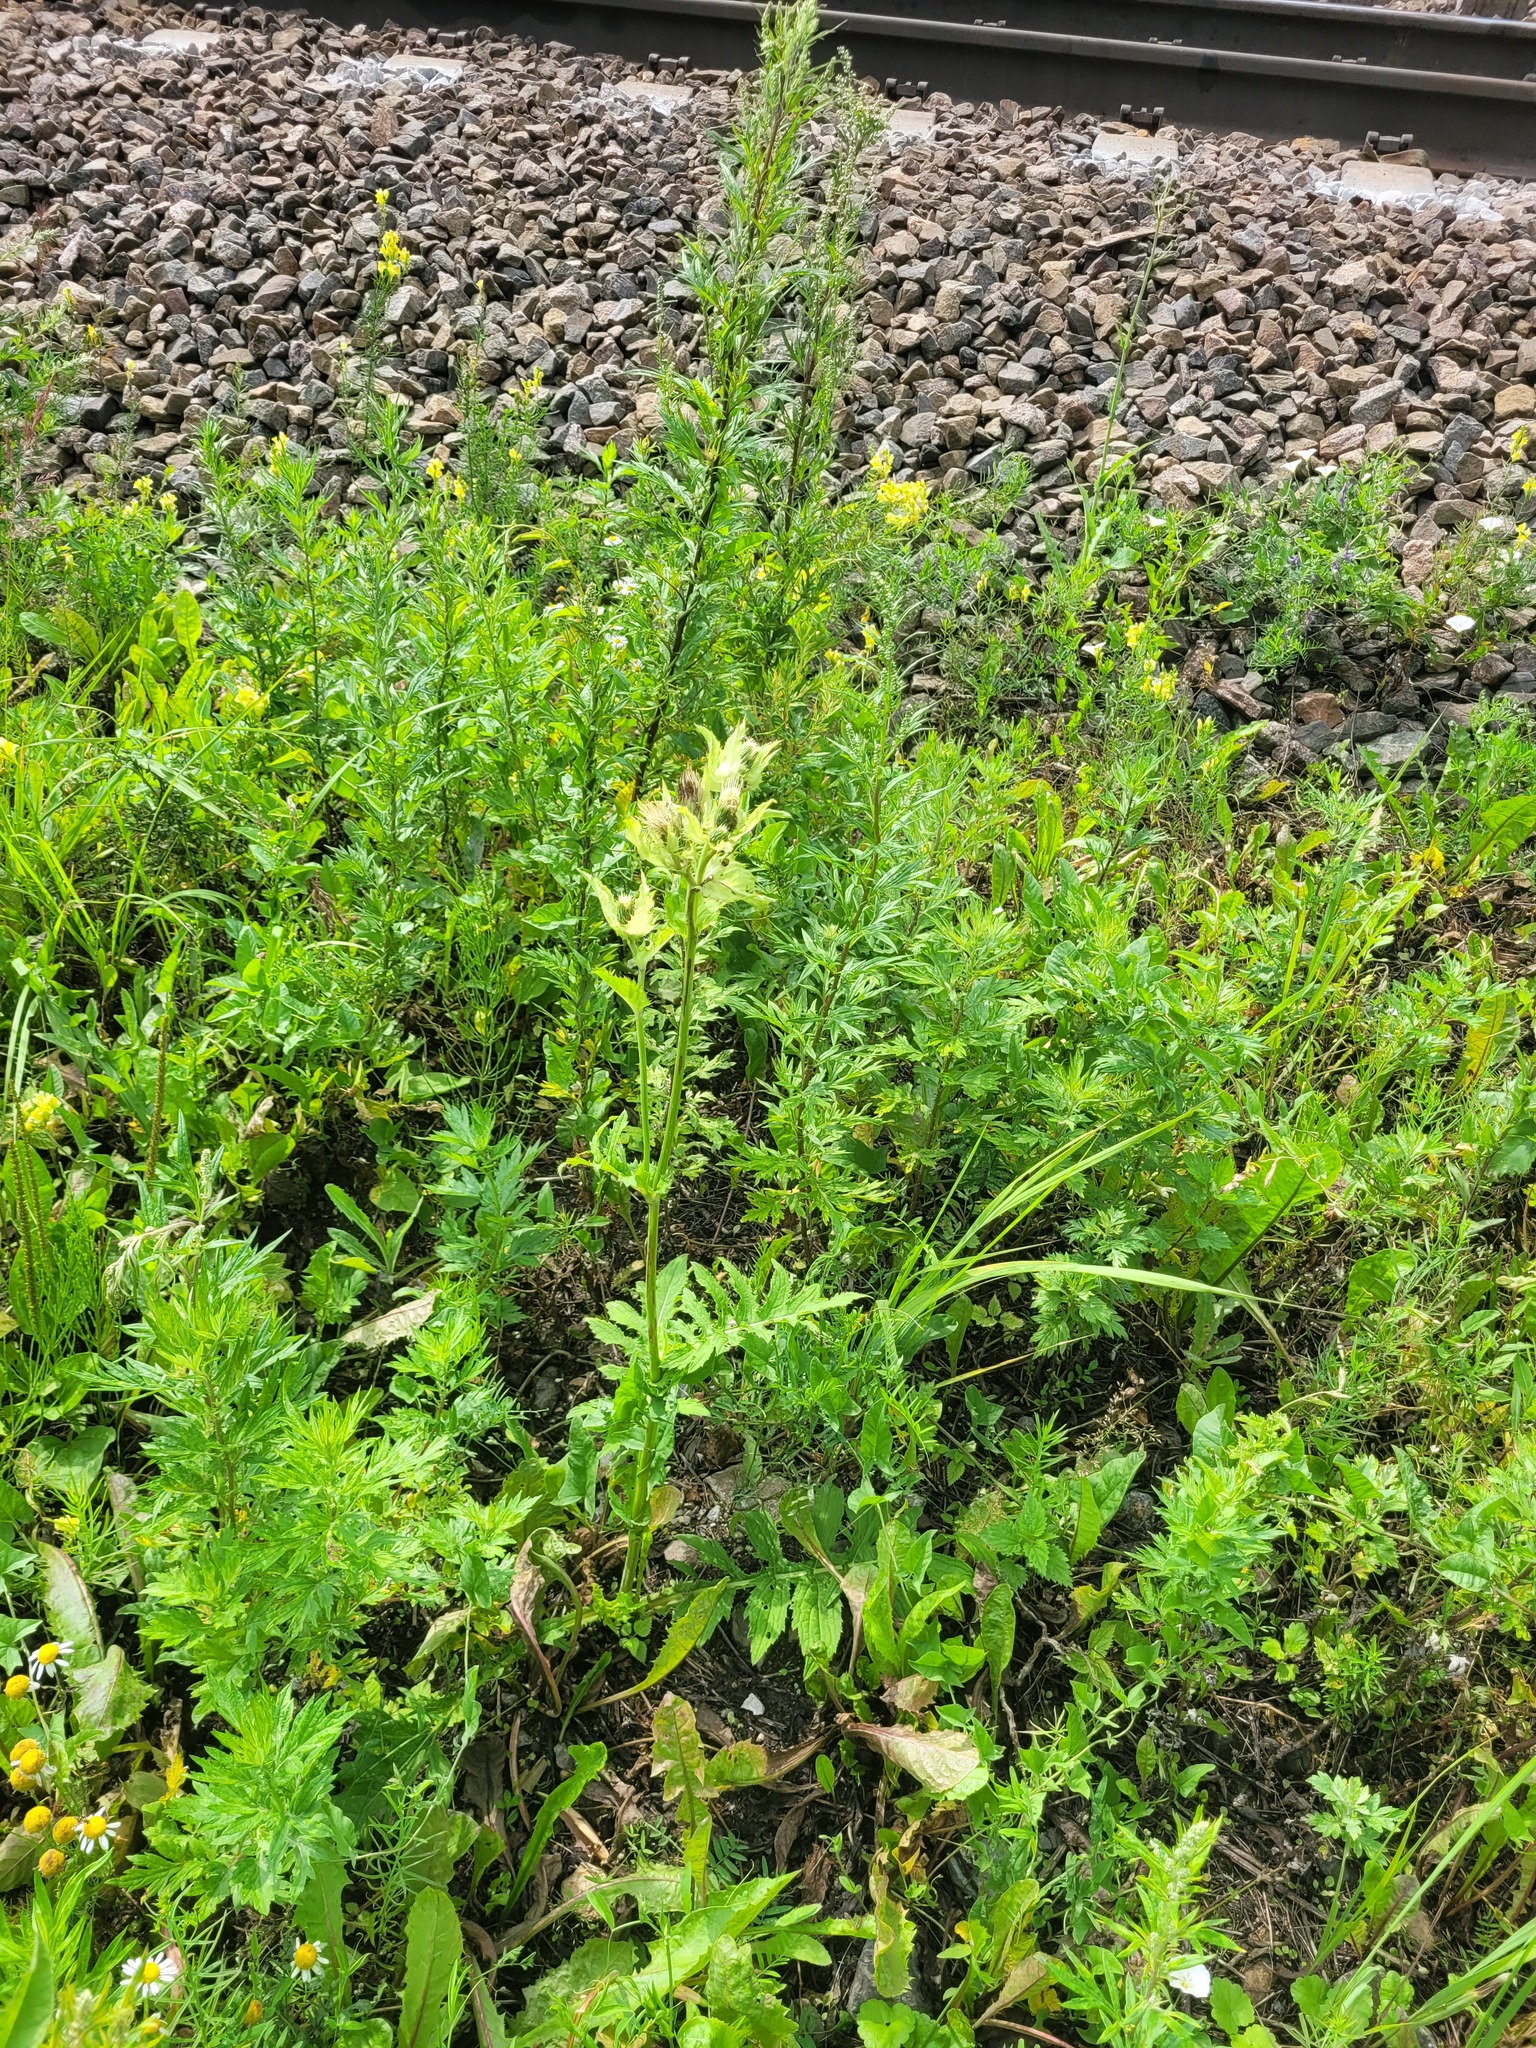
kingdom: Plantae
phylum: Tracheophyta
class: Magnoliopsida
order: Asterales
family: Asteraceae
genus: Cirsium
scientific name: Cirsium oleraceum
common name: Cabbage thistle
